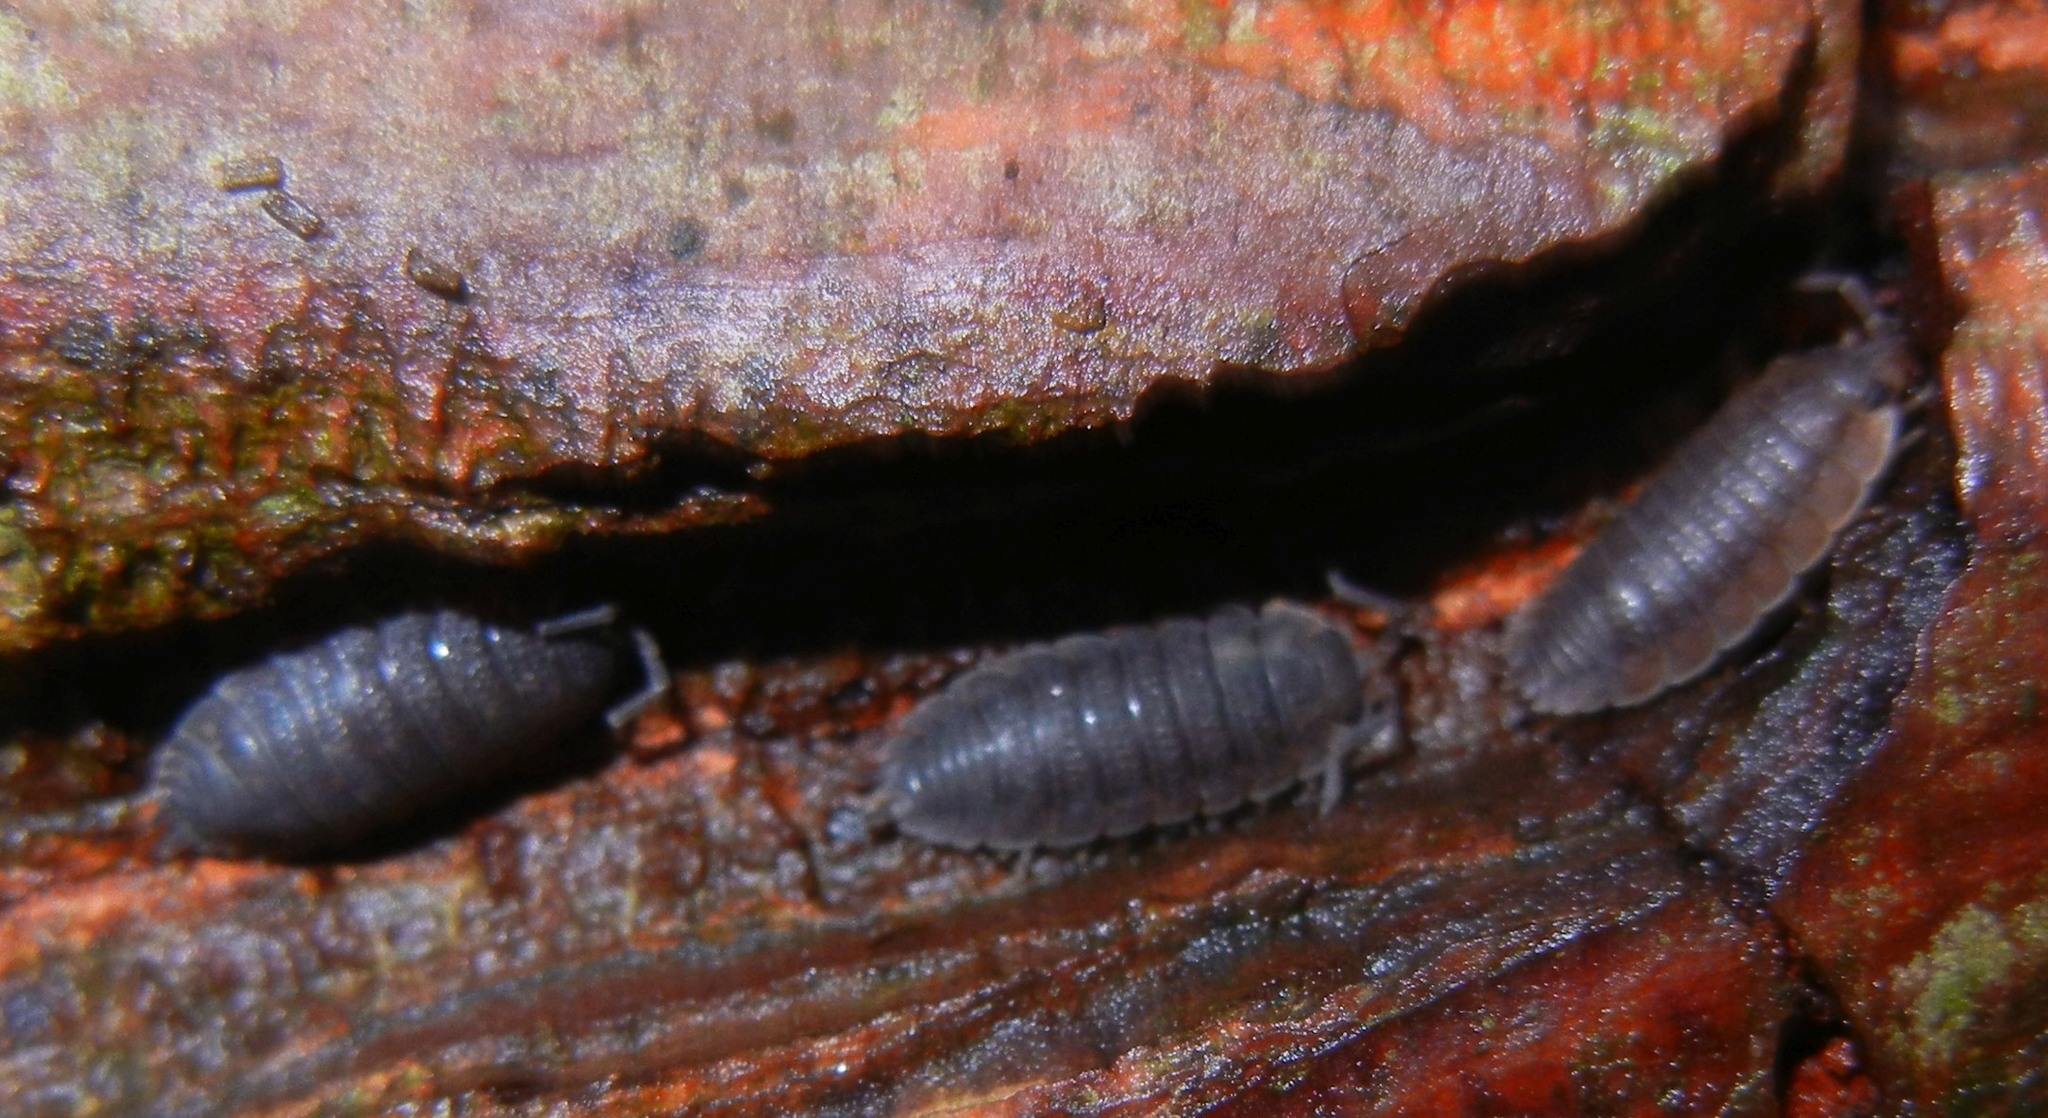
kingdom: Animalia
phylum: Arthropoda
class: Malacostraca
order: Isopoda
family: Porcellionidae
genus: Porcellio
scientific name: Porcellio scaber
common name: Common rough woodlouse
